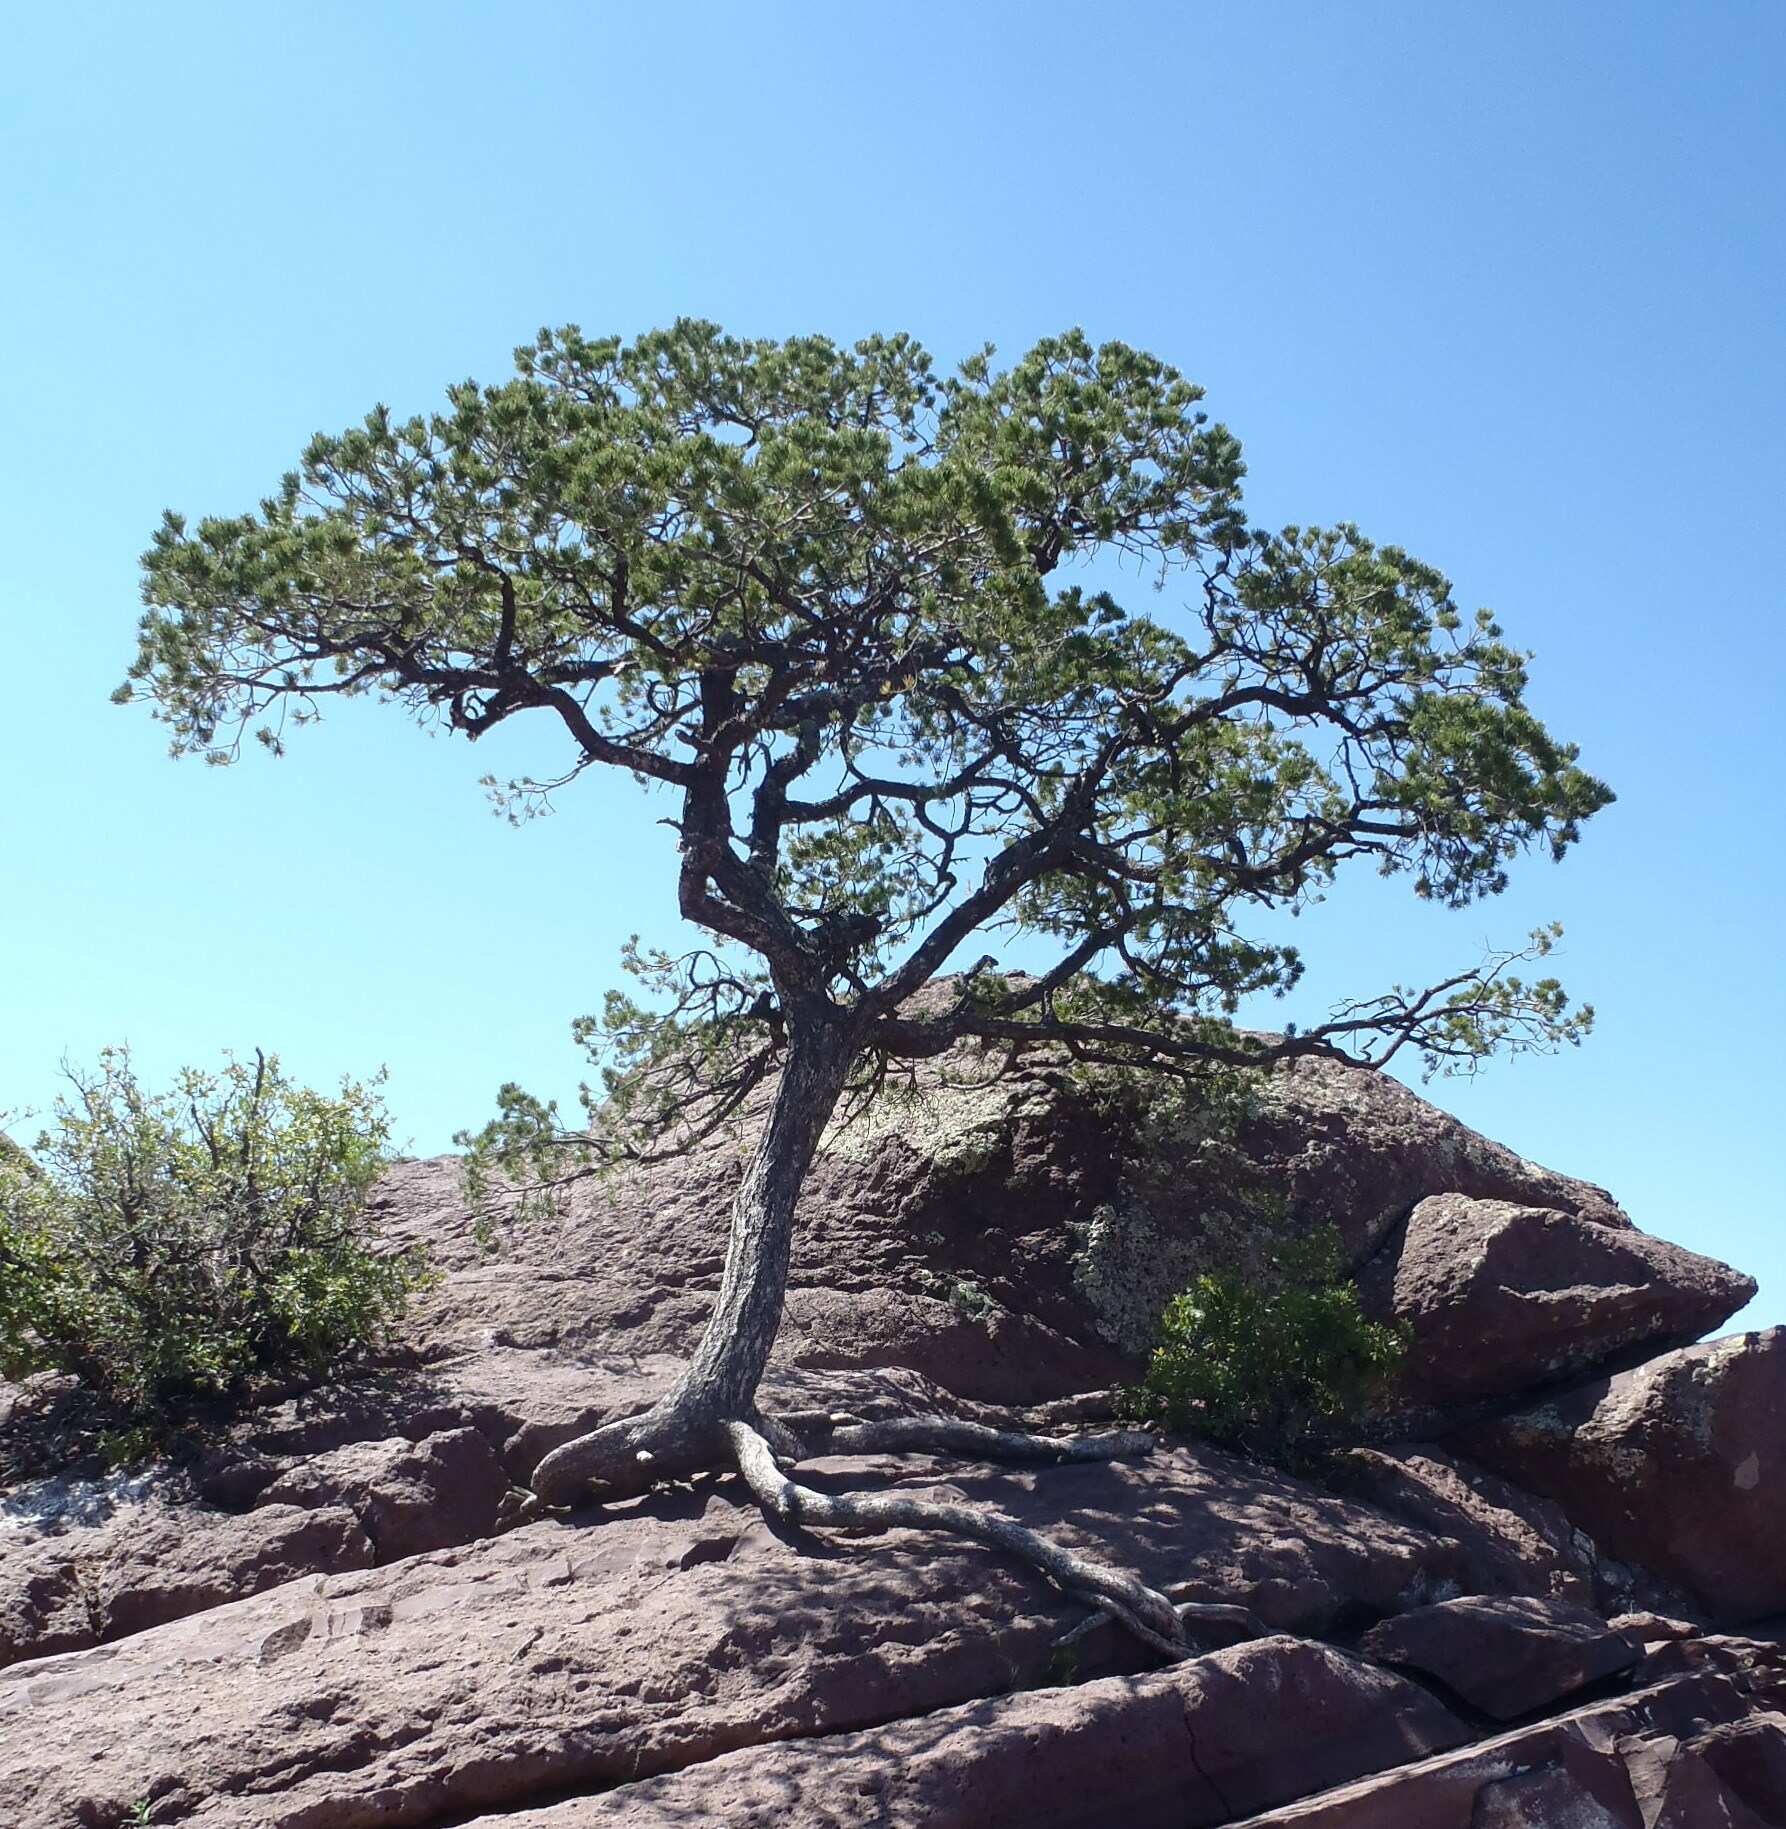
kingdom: Plantae
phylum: Tracheophyta
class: Pinopsida
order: Pinales
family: Pinaceae
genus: Pinus
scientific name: Pinus cembroides
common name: Mexican nut pine
